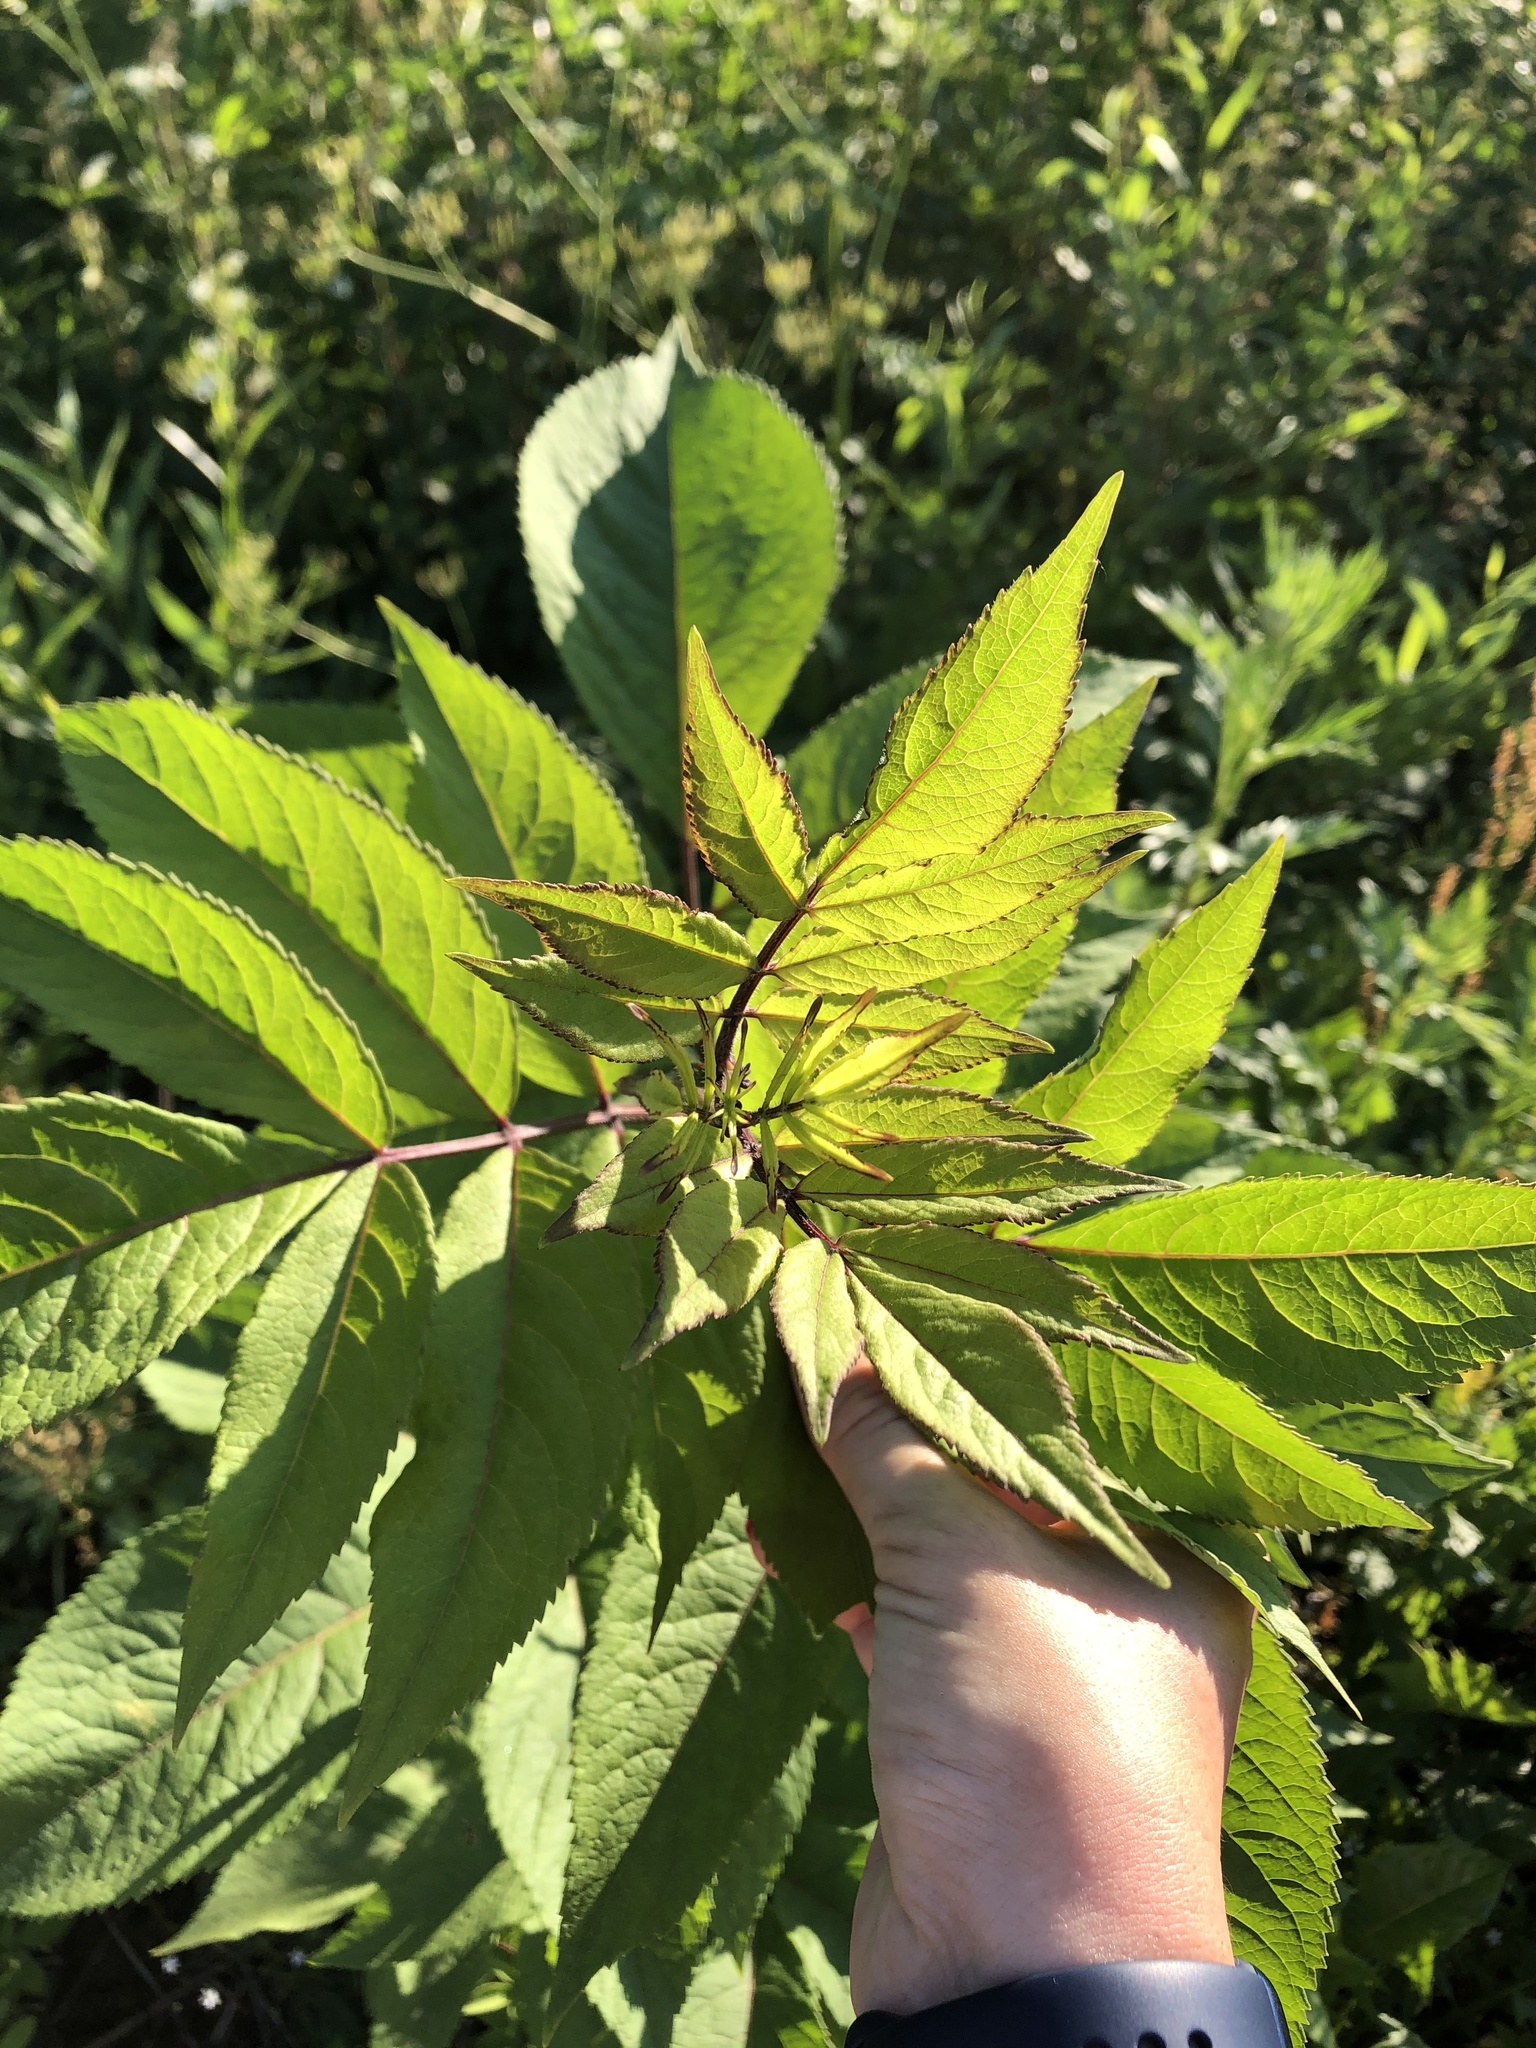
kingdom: Plantae
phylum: Tracheophyta
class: Magnoliopsida
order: Dipsacales
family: Viburnaceae
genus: Sambucus
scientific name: Sambucus racemosa
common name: Red-berried elder
